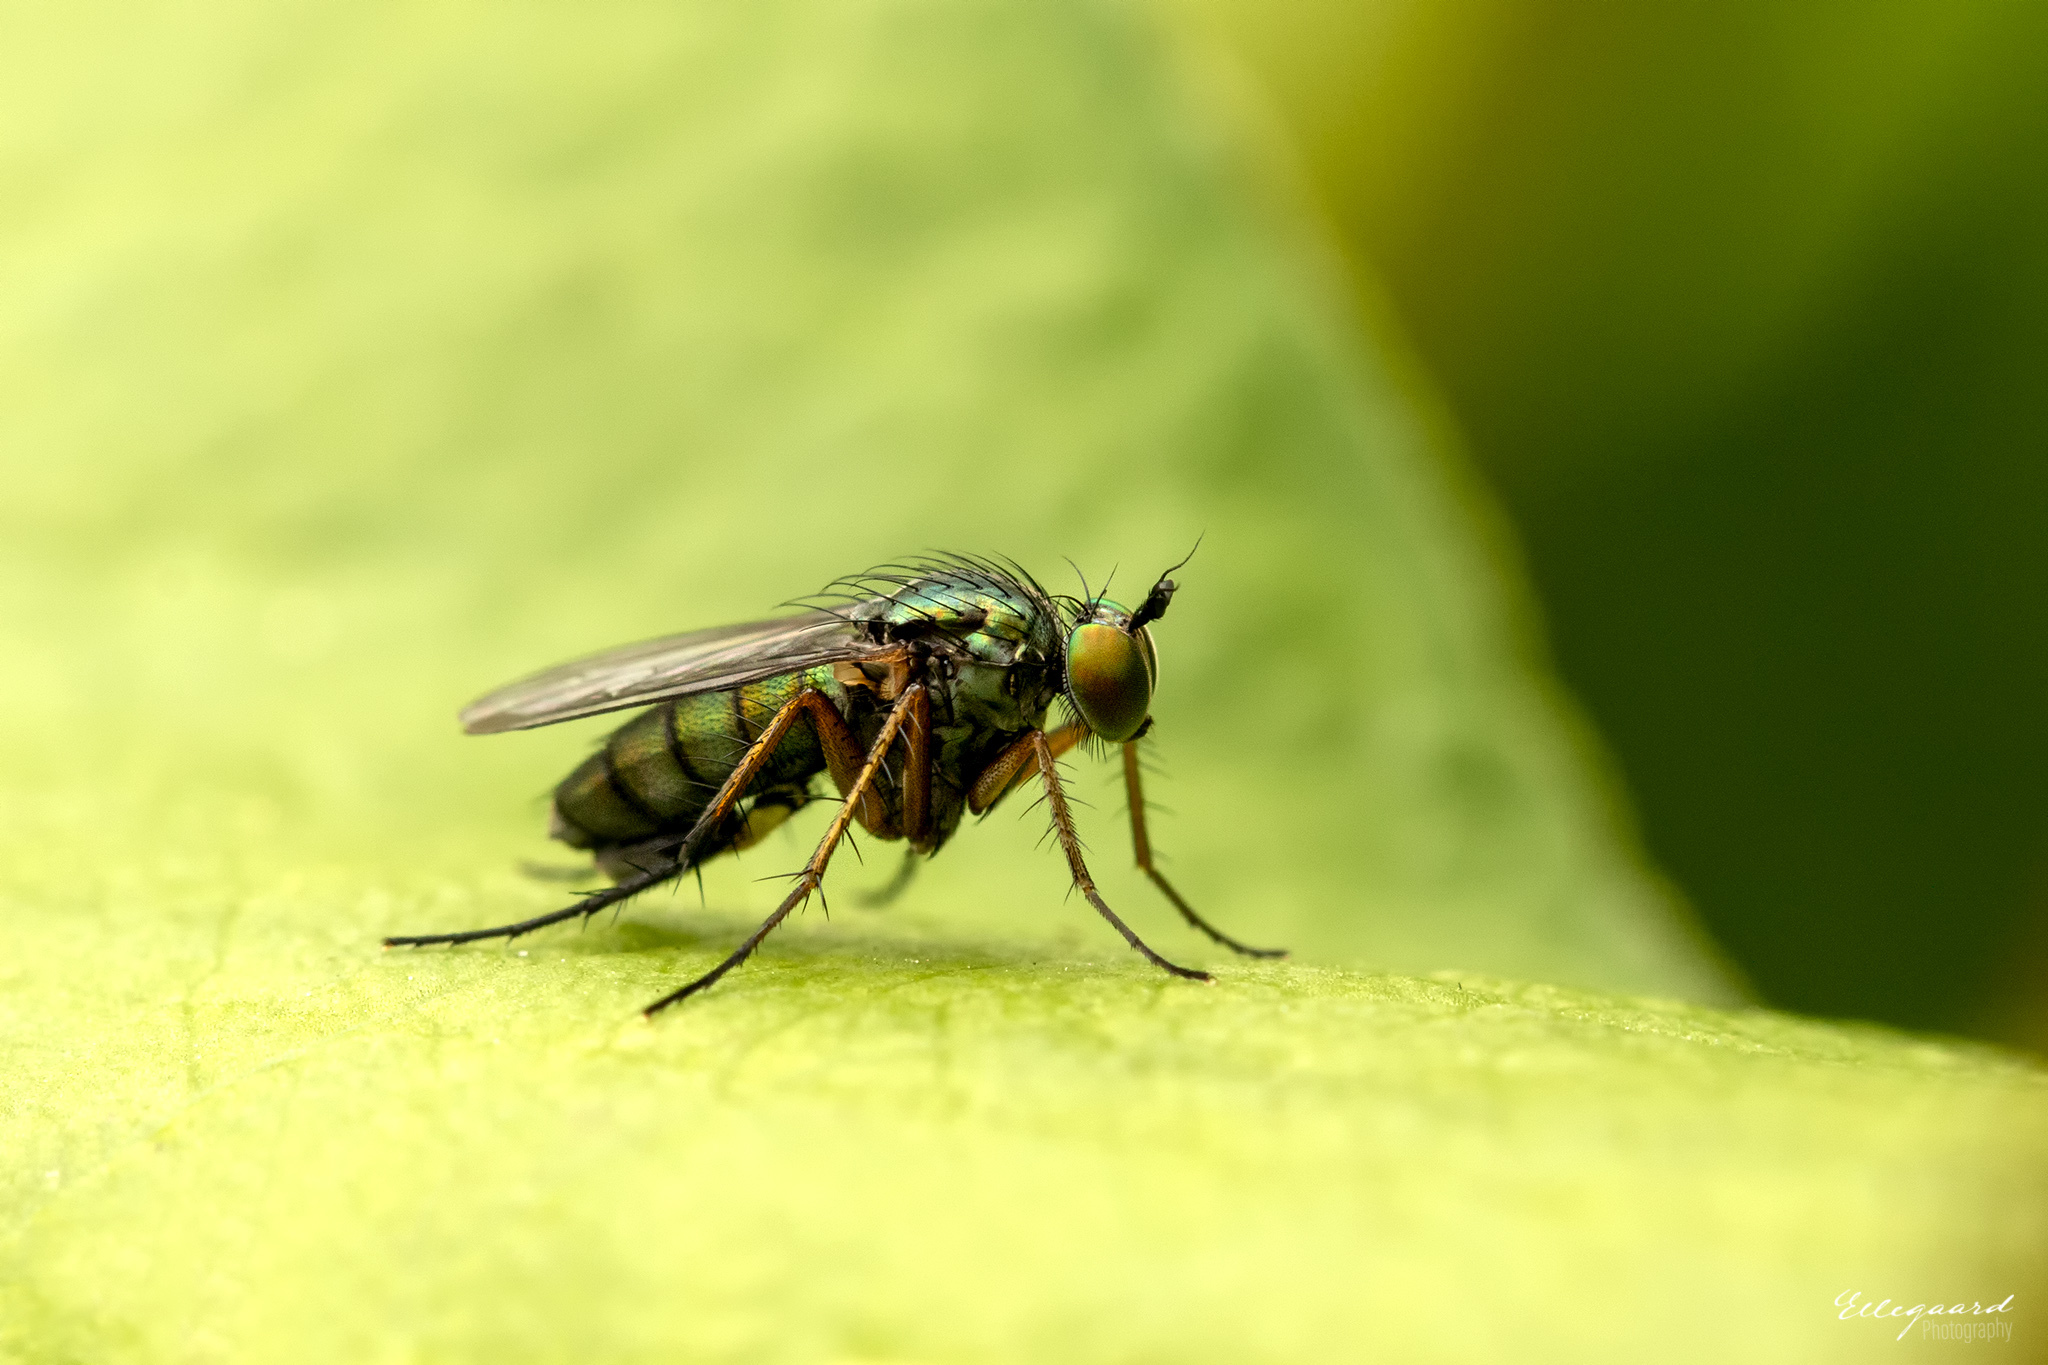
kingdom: Animalia
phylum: Arthropoda
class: Insecta
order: Diptera
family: Dolichopodidae
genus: Poecilobothrus
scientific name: Poecilobothrus nobilitatus
